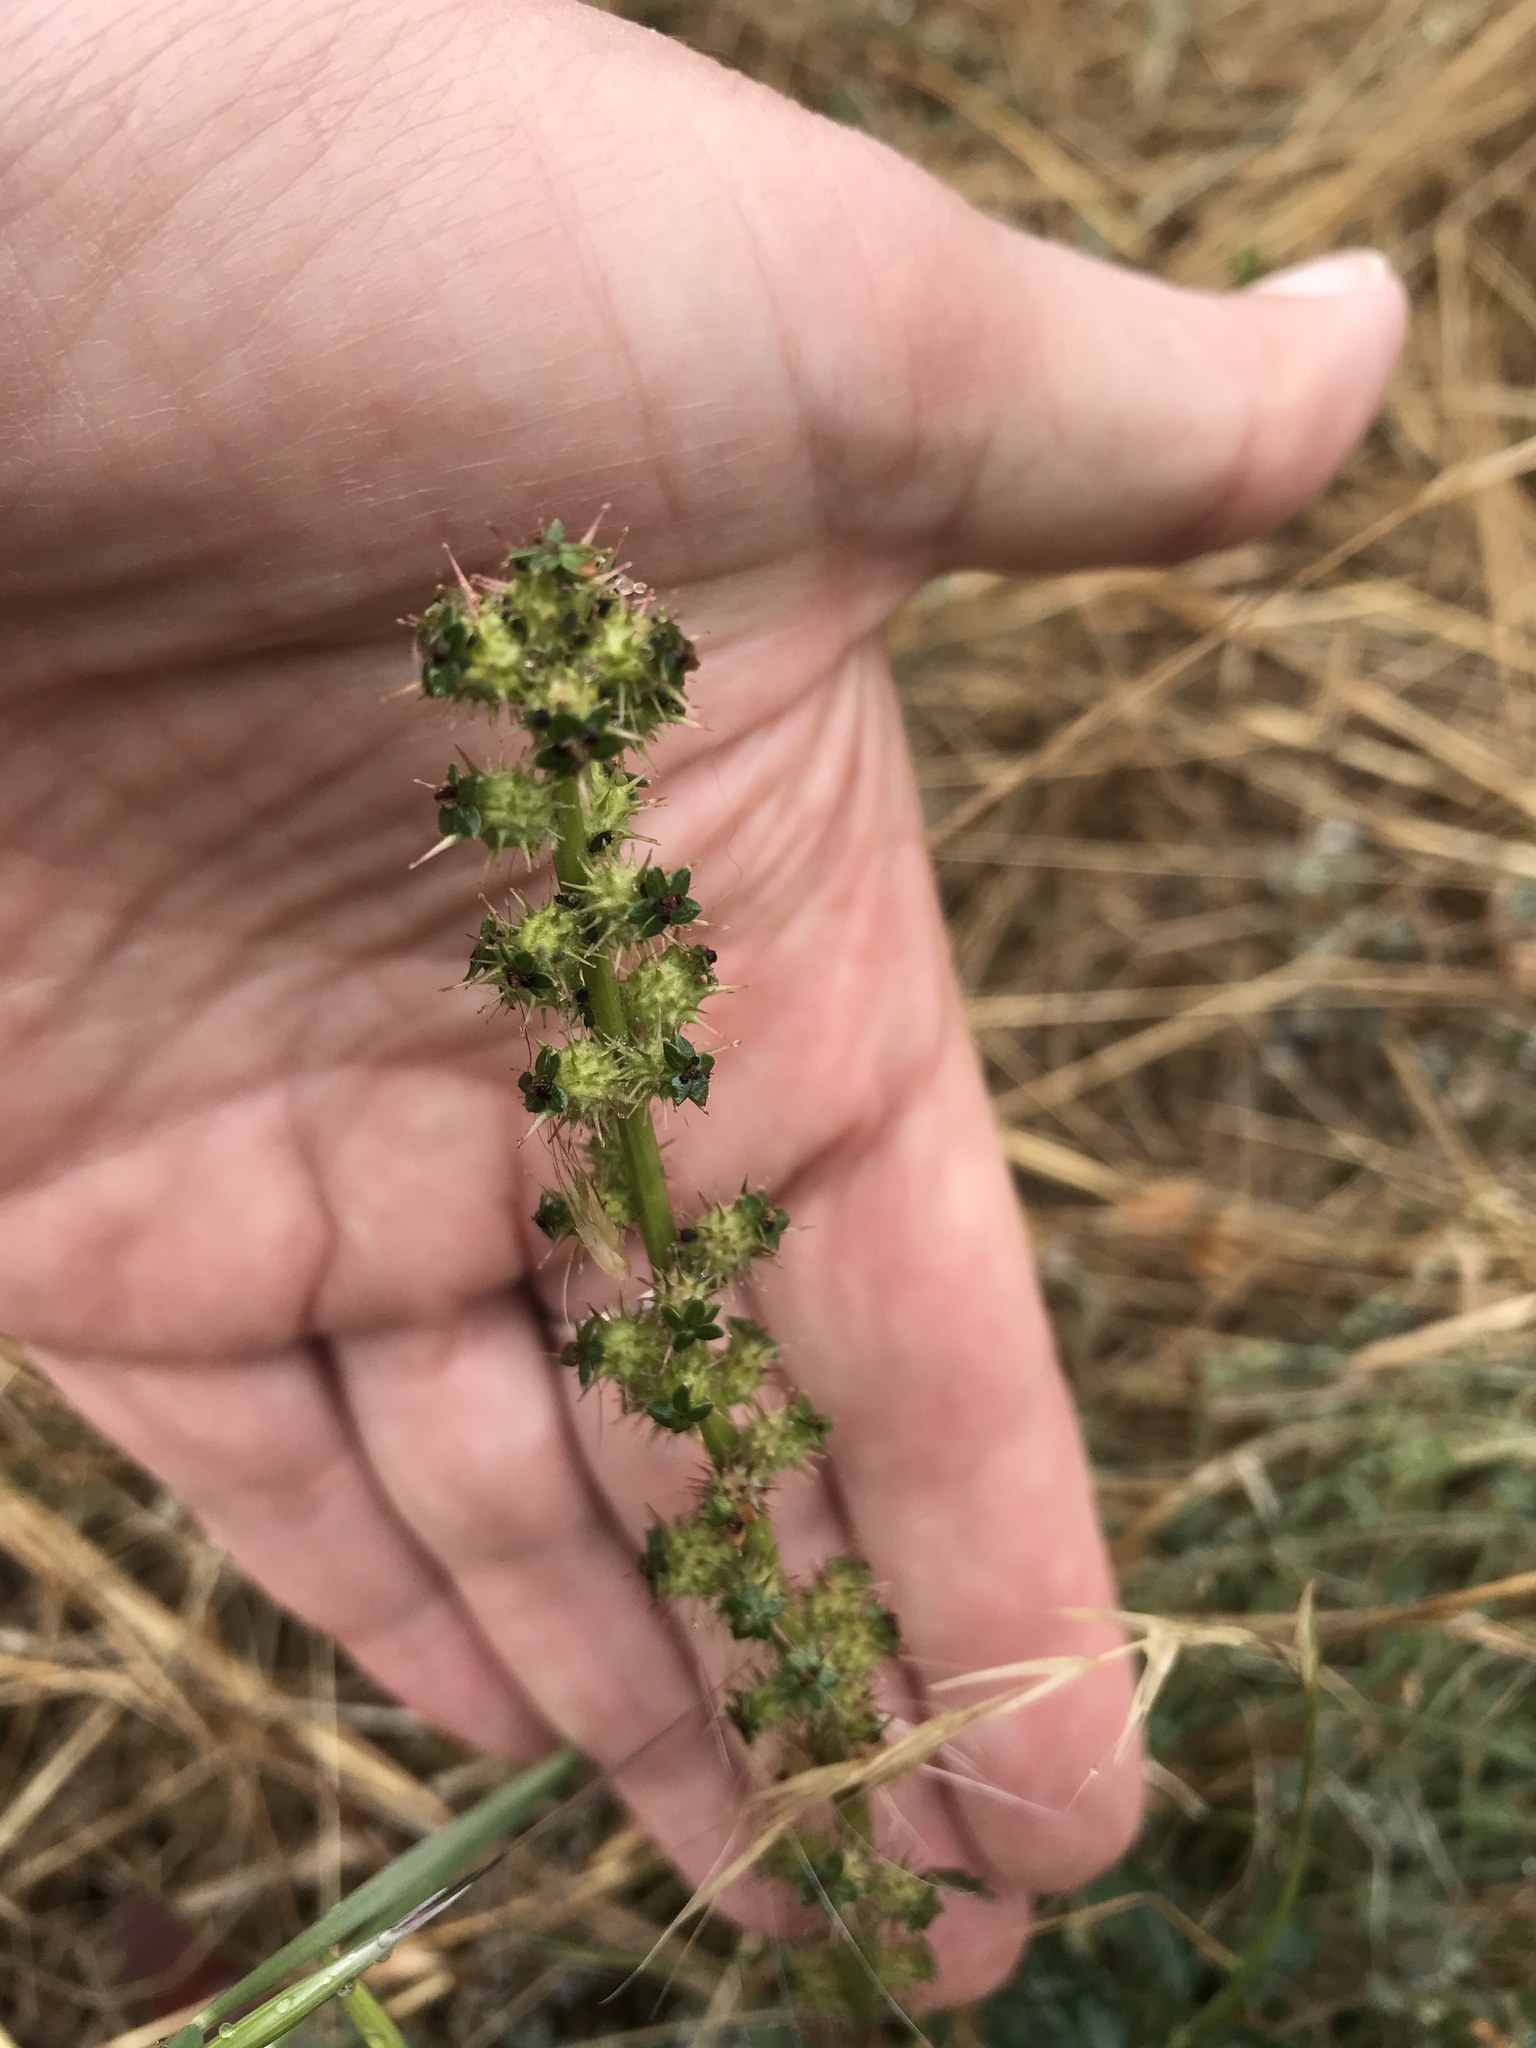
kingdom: Plantae
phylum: Tracheophyta
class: Magnoliopsida
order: Rosales
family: Rosaceae
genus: Acaena
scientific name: Acaena echinata
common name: Sheepbur
